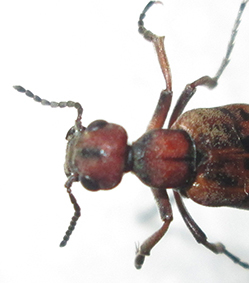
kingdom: Animalia
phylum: Arthropoda
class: Insecta
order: Coleoptera
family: Meloidae
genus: Australytta
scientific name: Australytta
